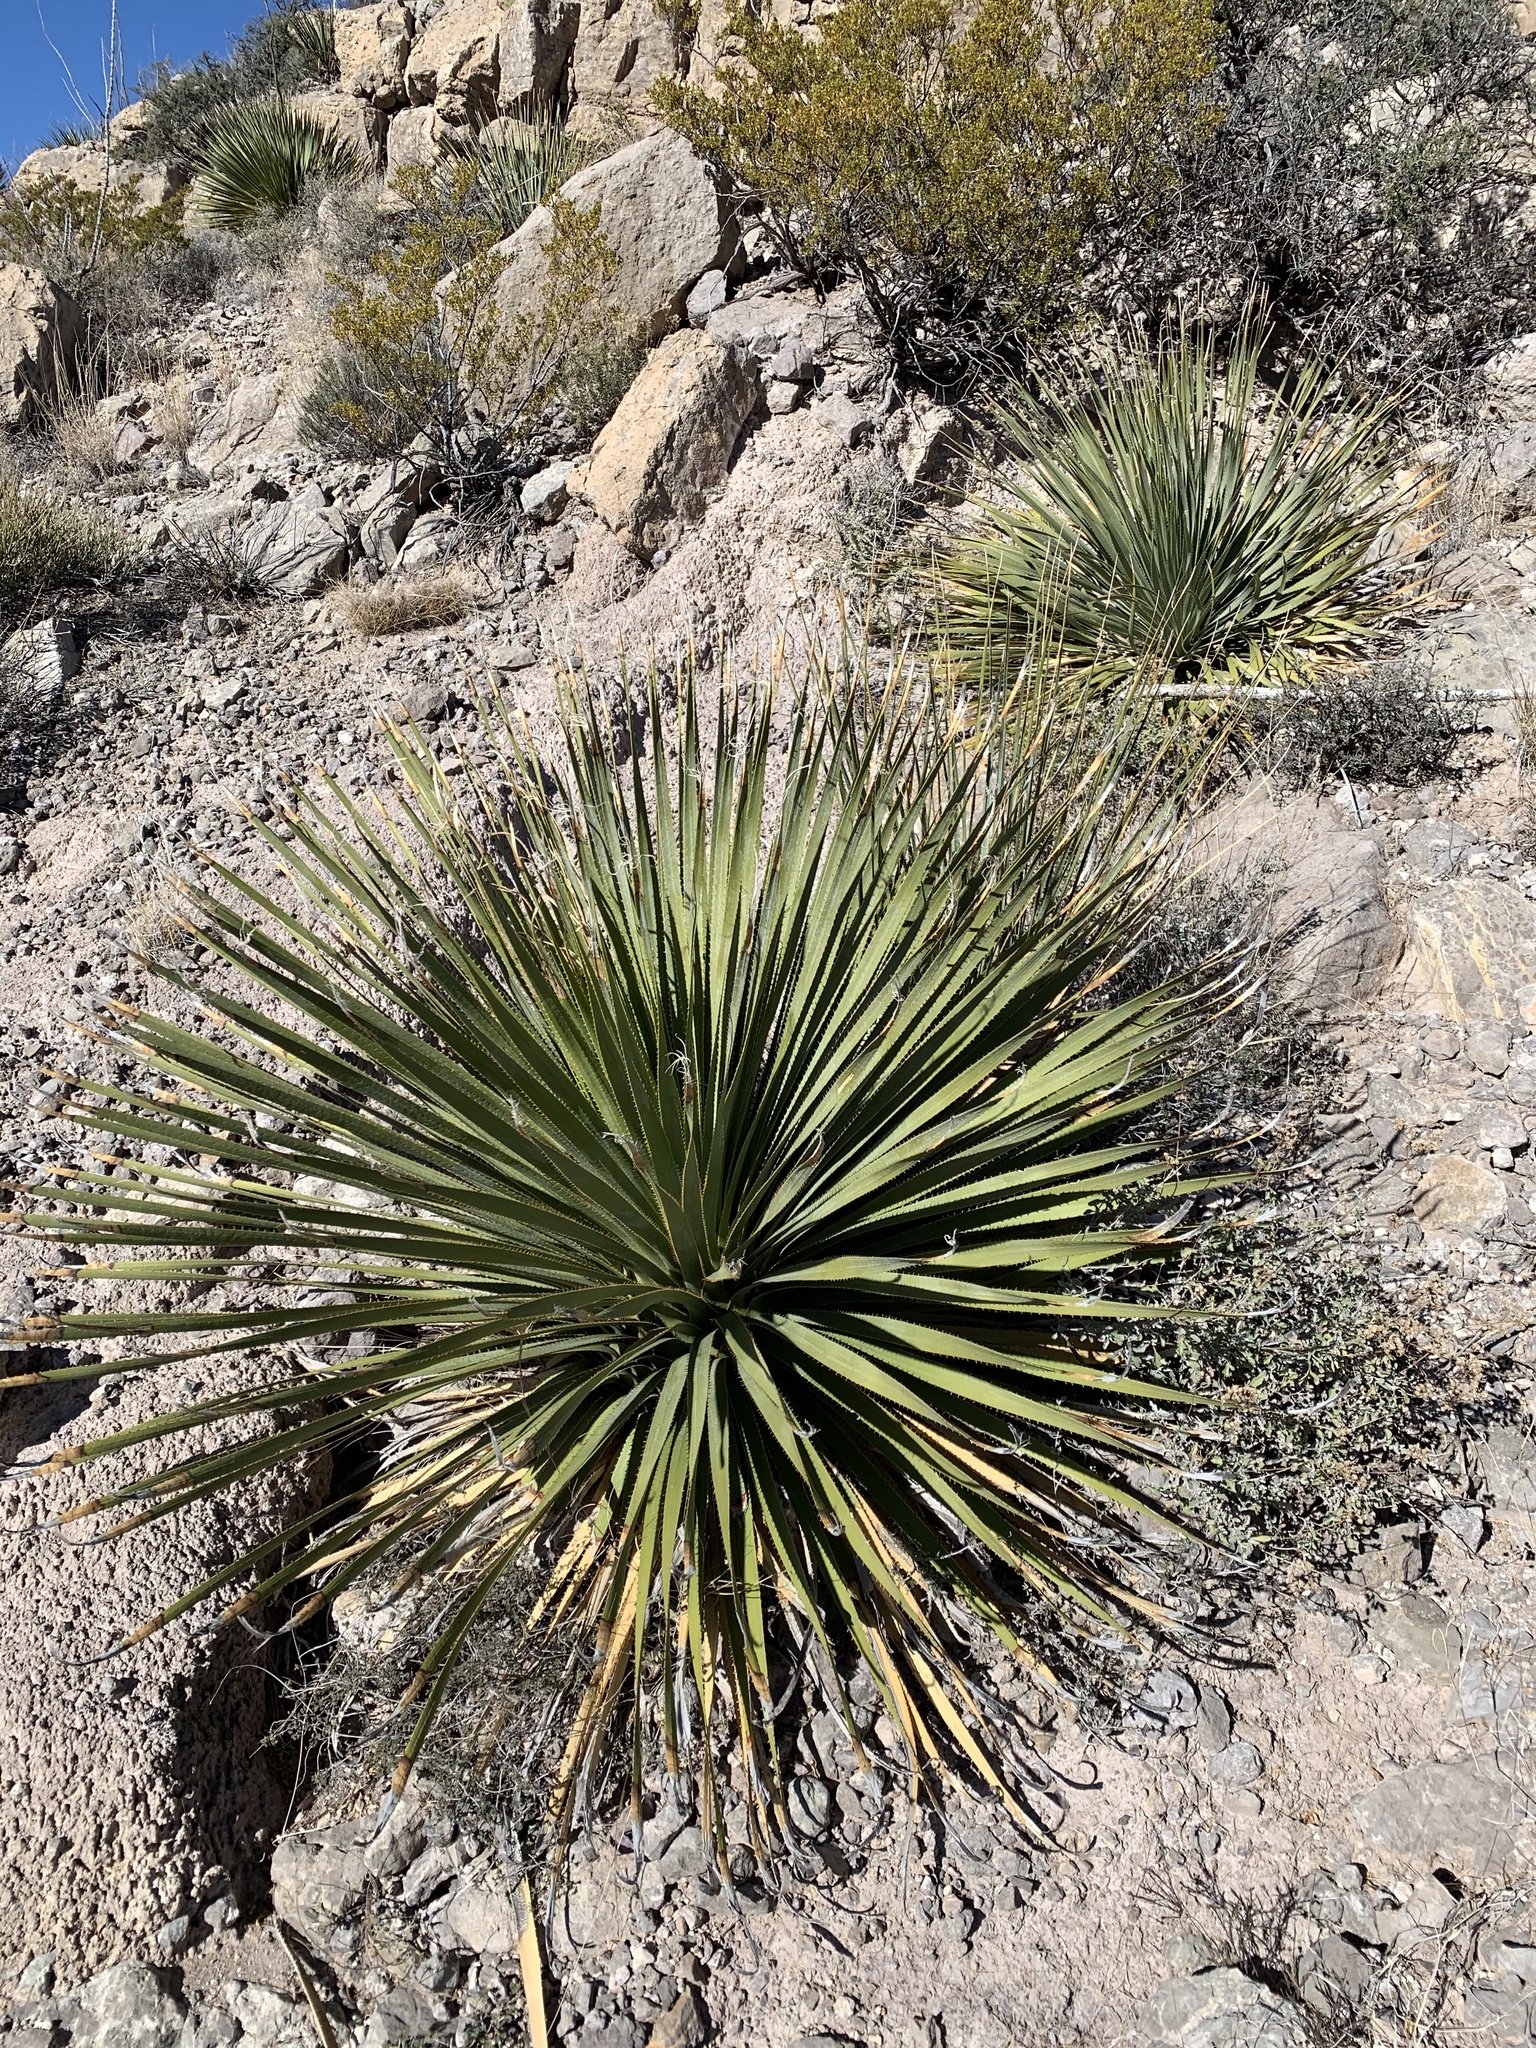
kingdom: Plantae
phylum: Tracheophyta
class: Liliopsida
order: Asparagales
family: Asparagaceae
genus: Dasylirion
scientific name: Dasylirion wheeleri
